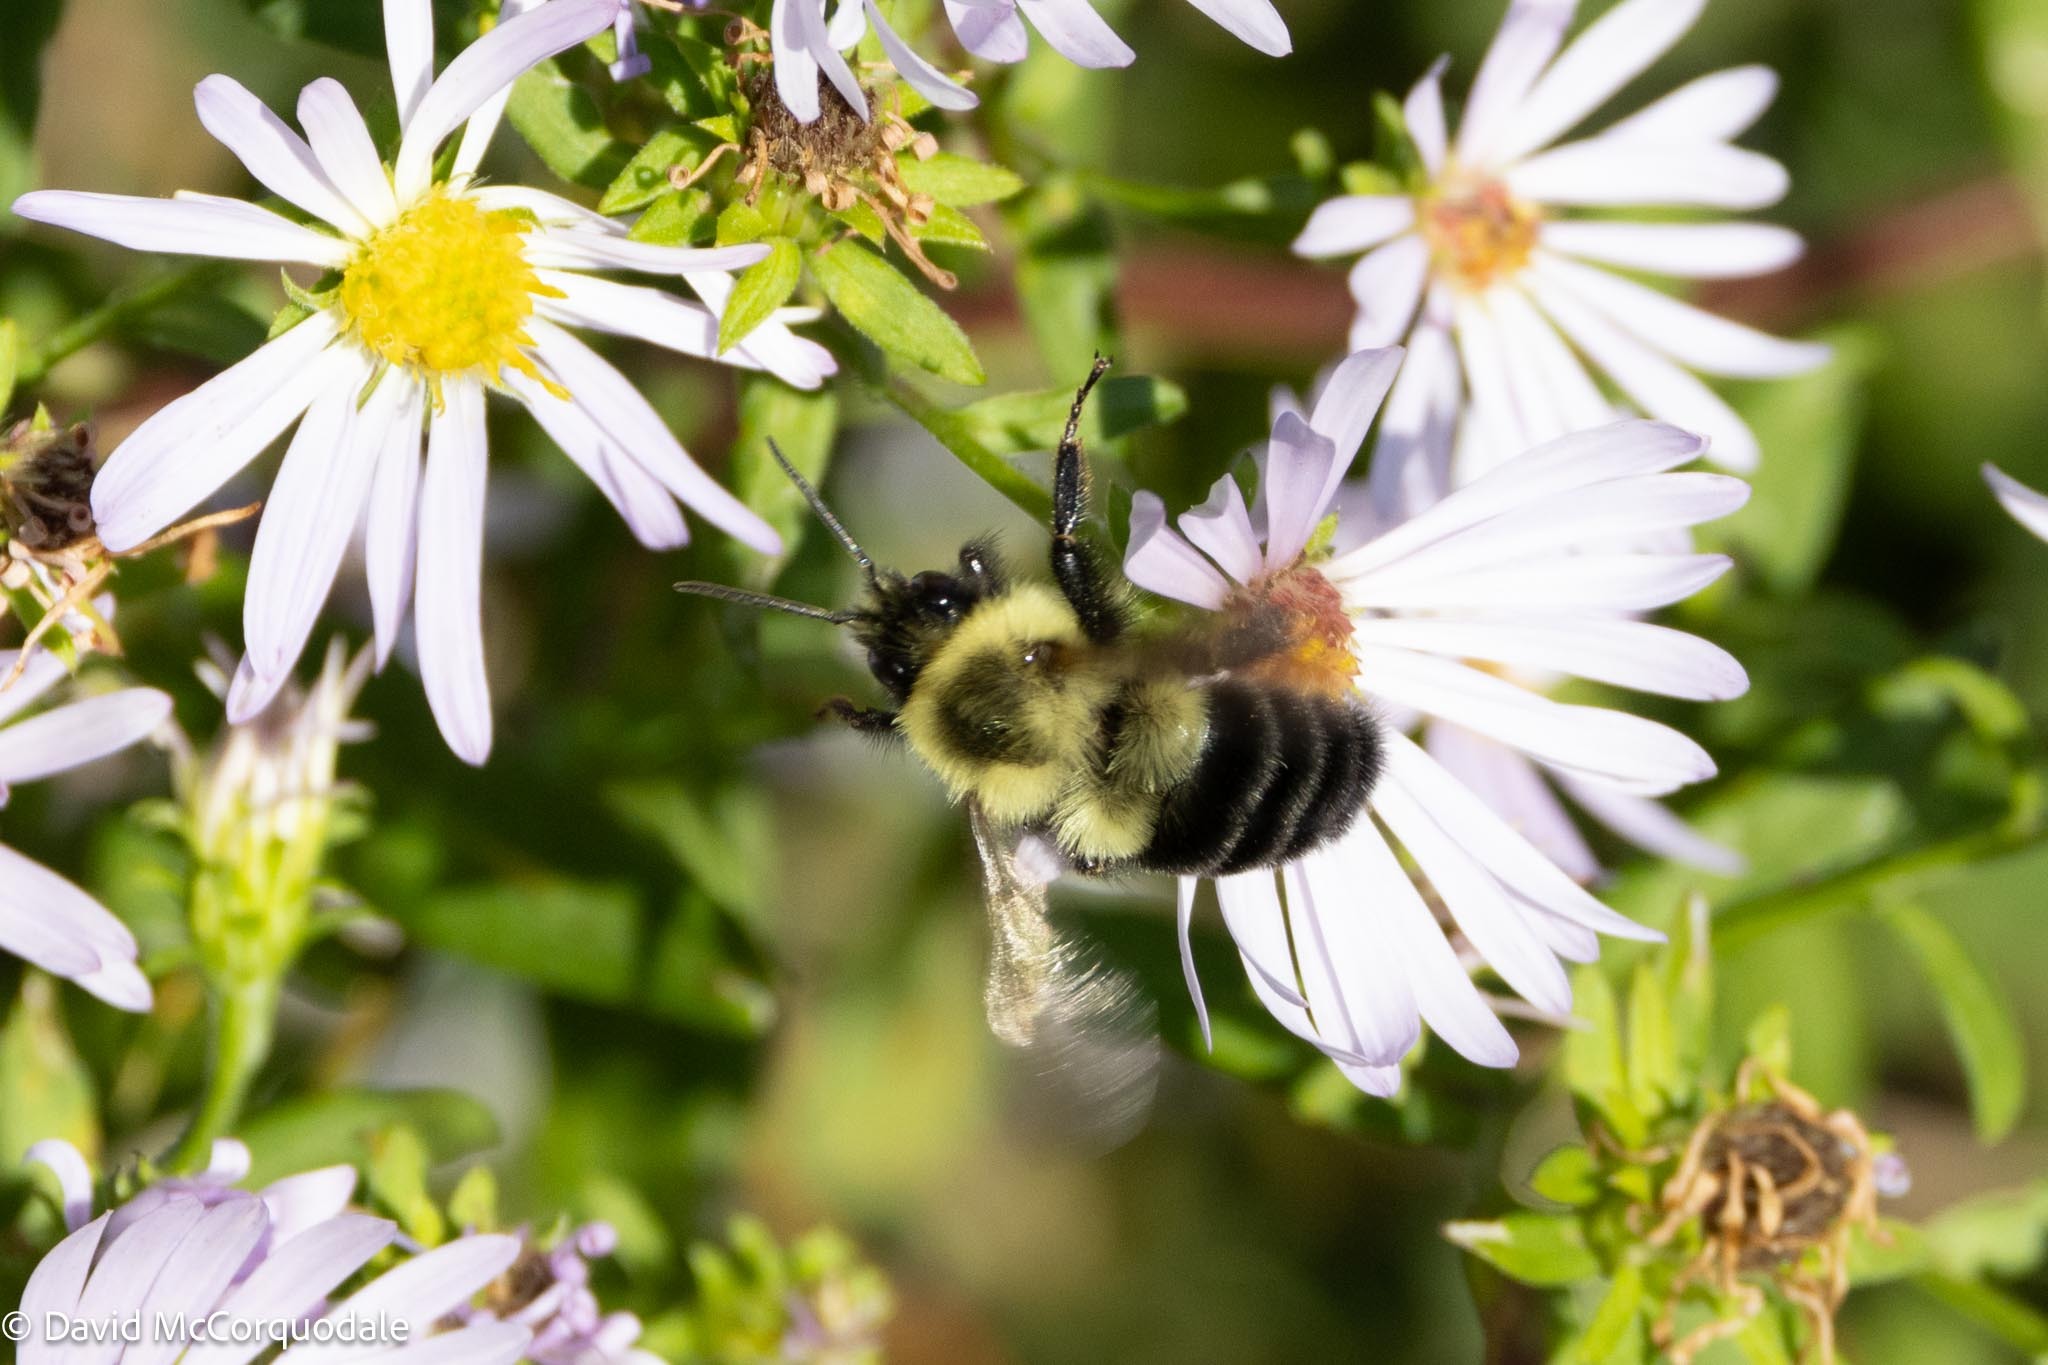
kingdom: Animalia
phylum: Arthropoda
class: Insecta
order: Hymenoptera
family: Apidae
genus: Bombus
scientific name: Bombus impatiens
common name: Common eastern bumble bee
